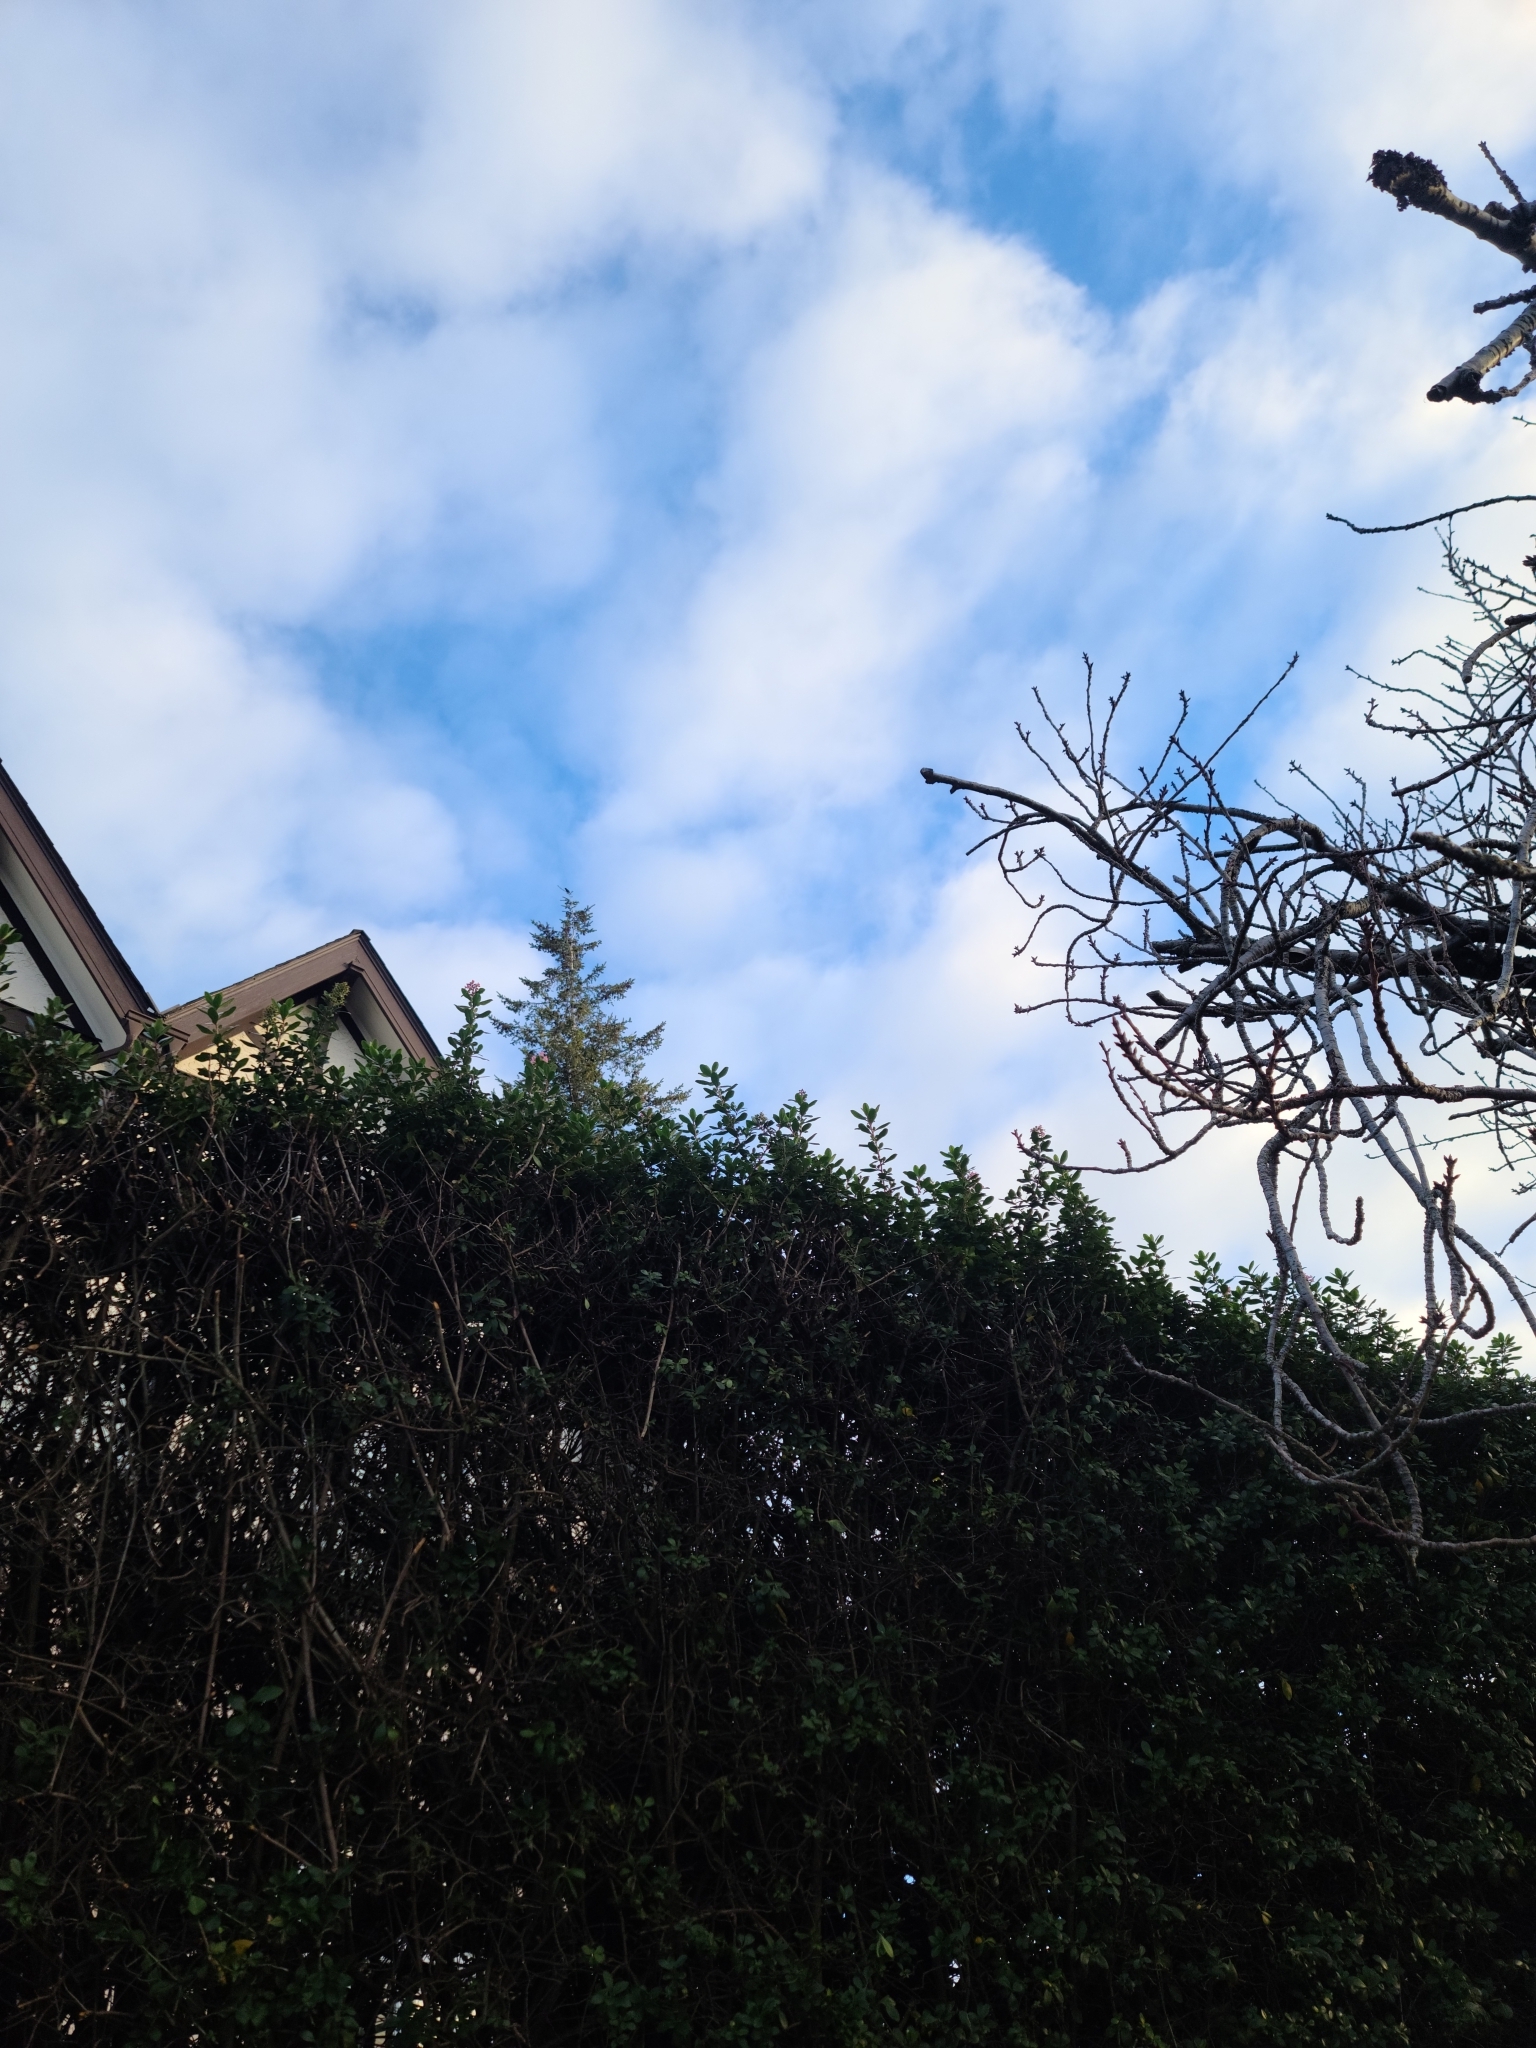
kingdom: Animalia
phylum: Chordata
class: Aves
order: Passeriformes
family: Sturnidae
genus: Sturnus
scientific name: Sturnus vulgaris
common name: Common starling
